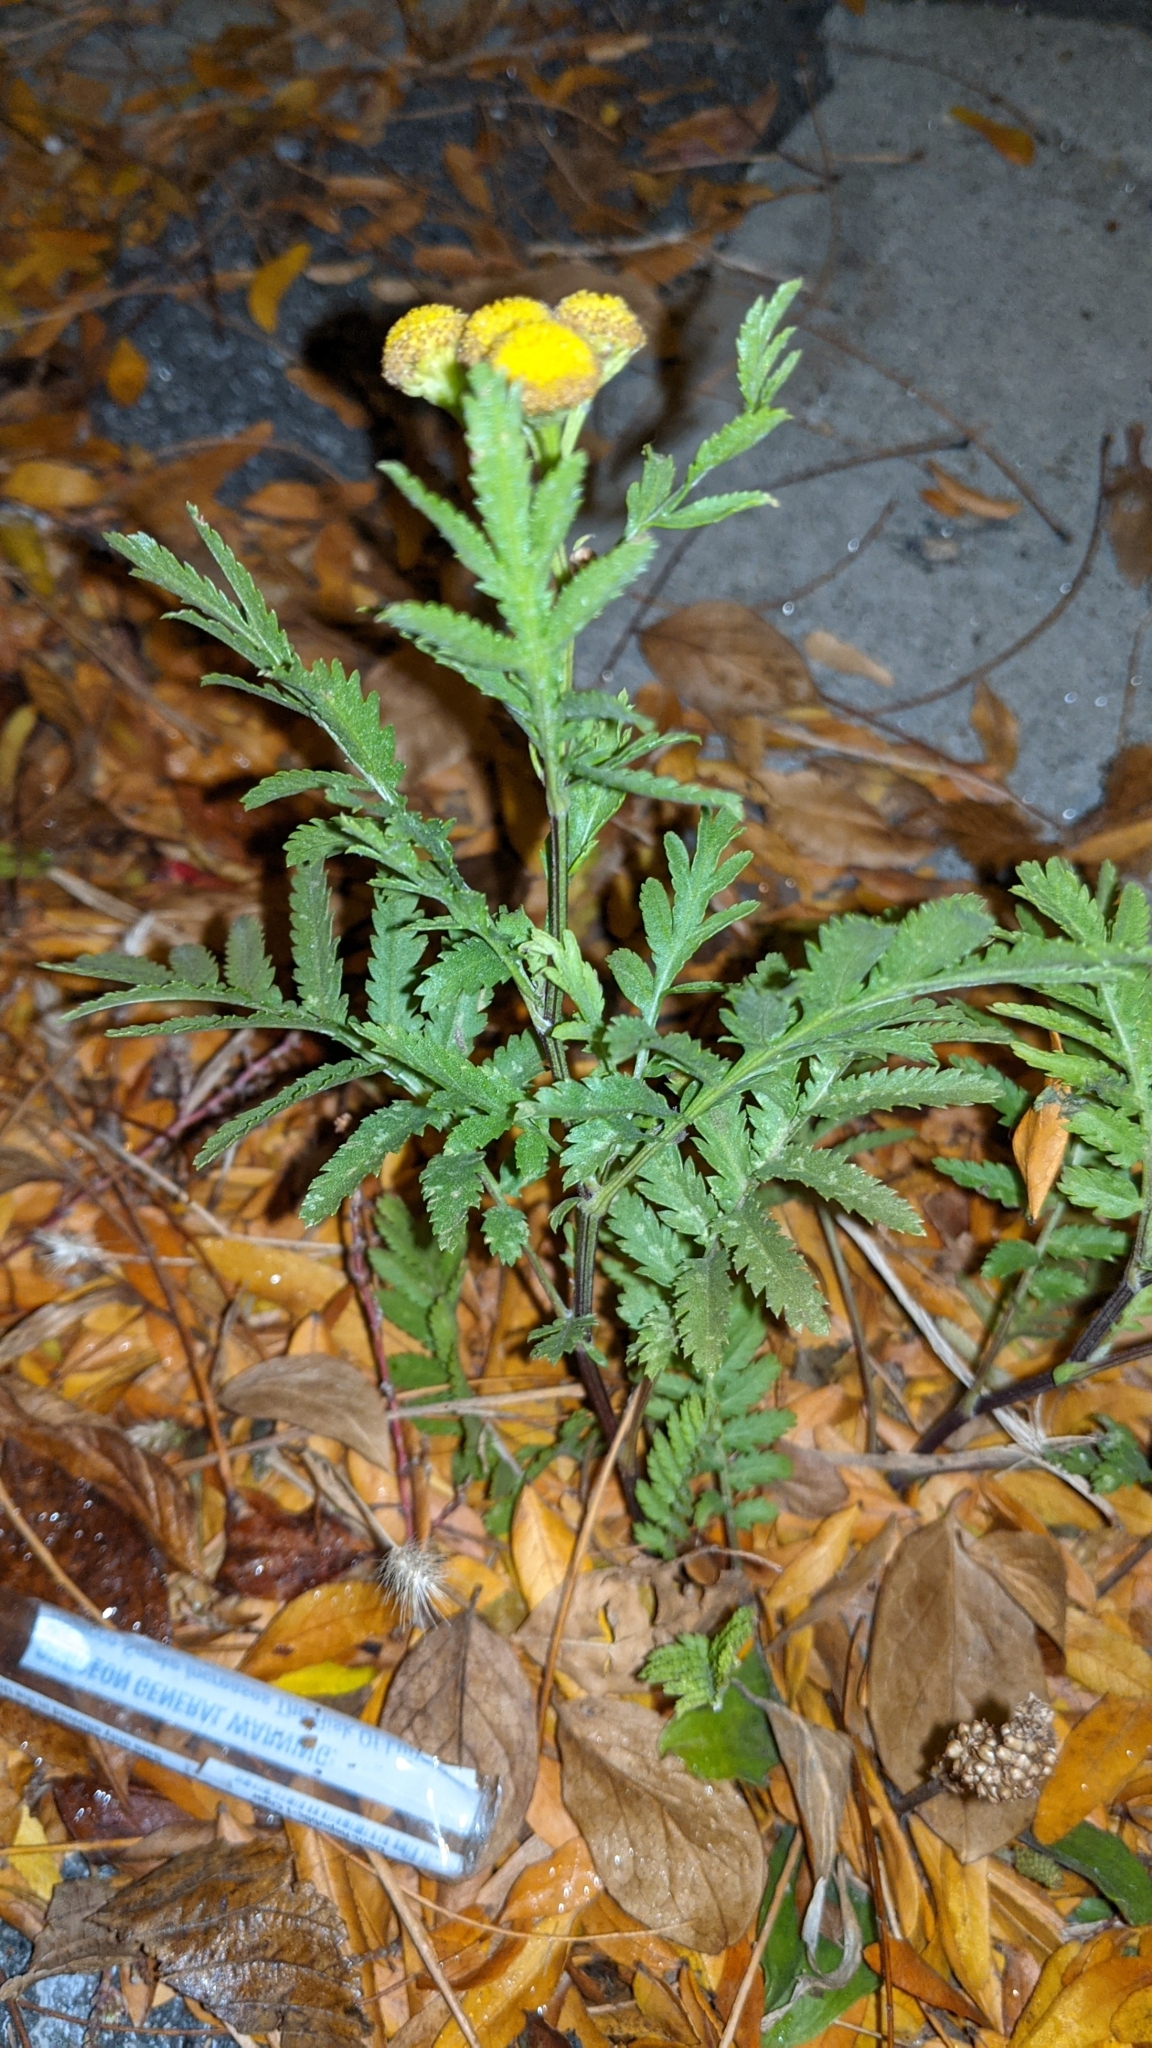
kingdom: Plantae
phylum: Tracheophyta
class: Magnoliopsida
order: Asterales
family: Asteraceae
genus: Tanacetum
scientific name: Tanacetum vulgare
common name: Common tansy
